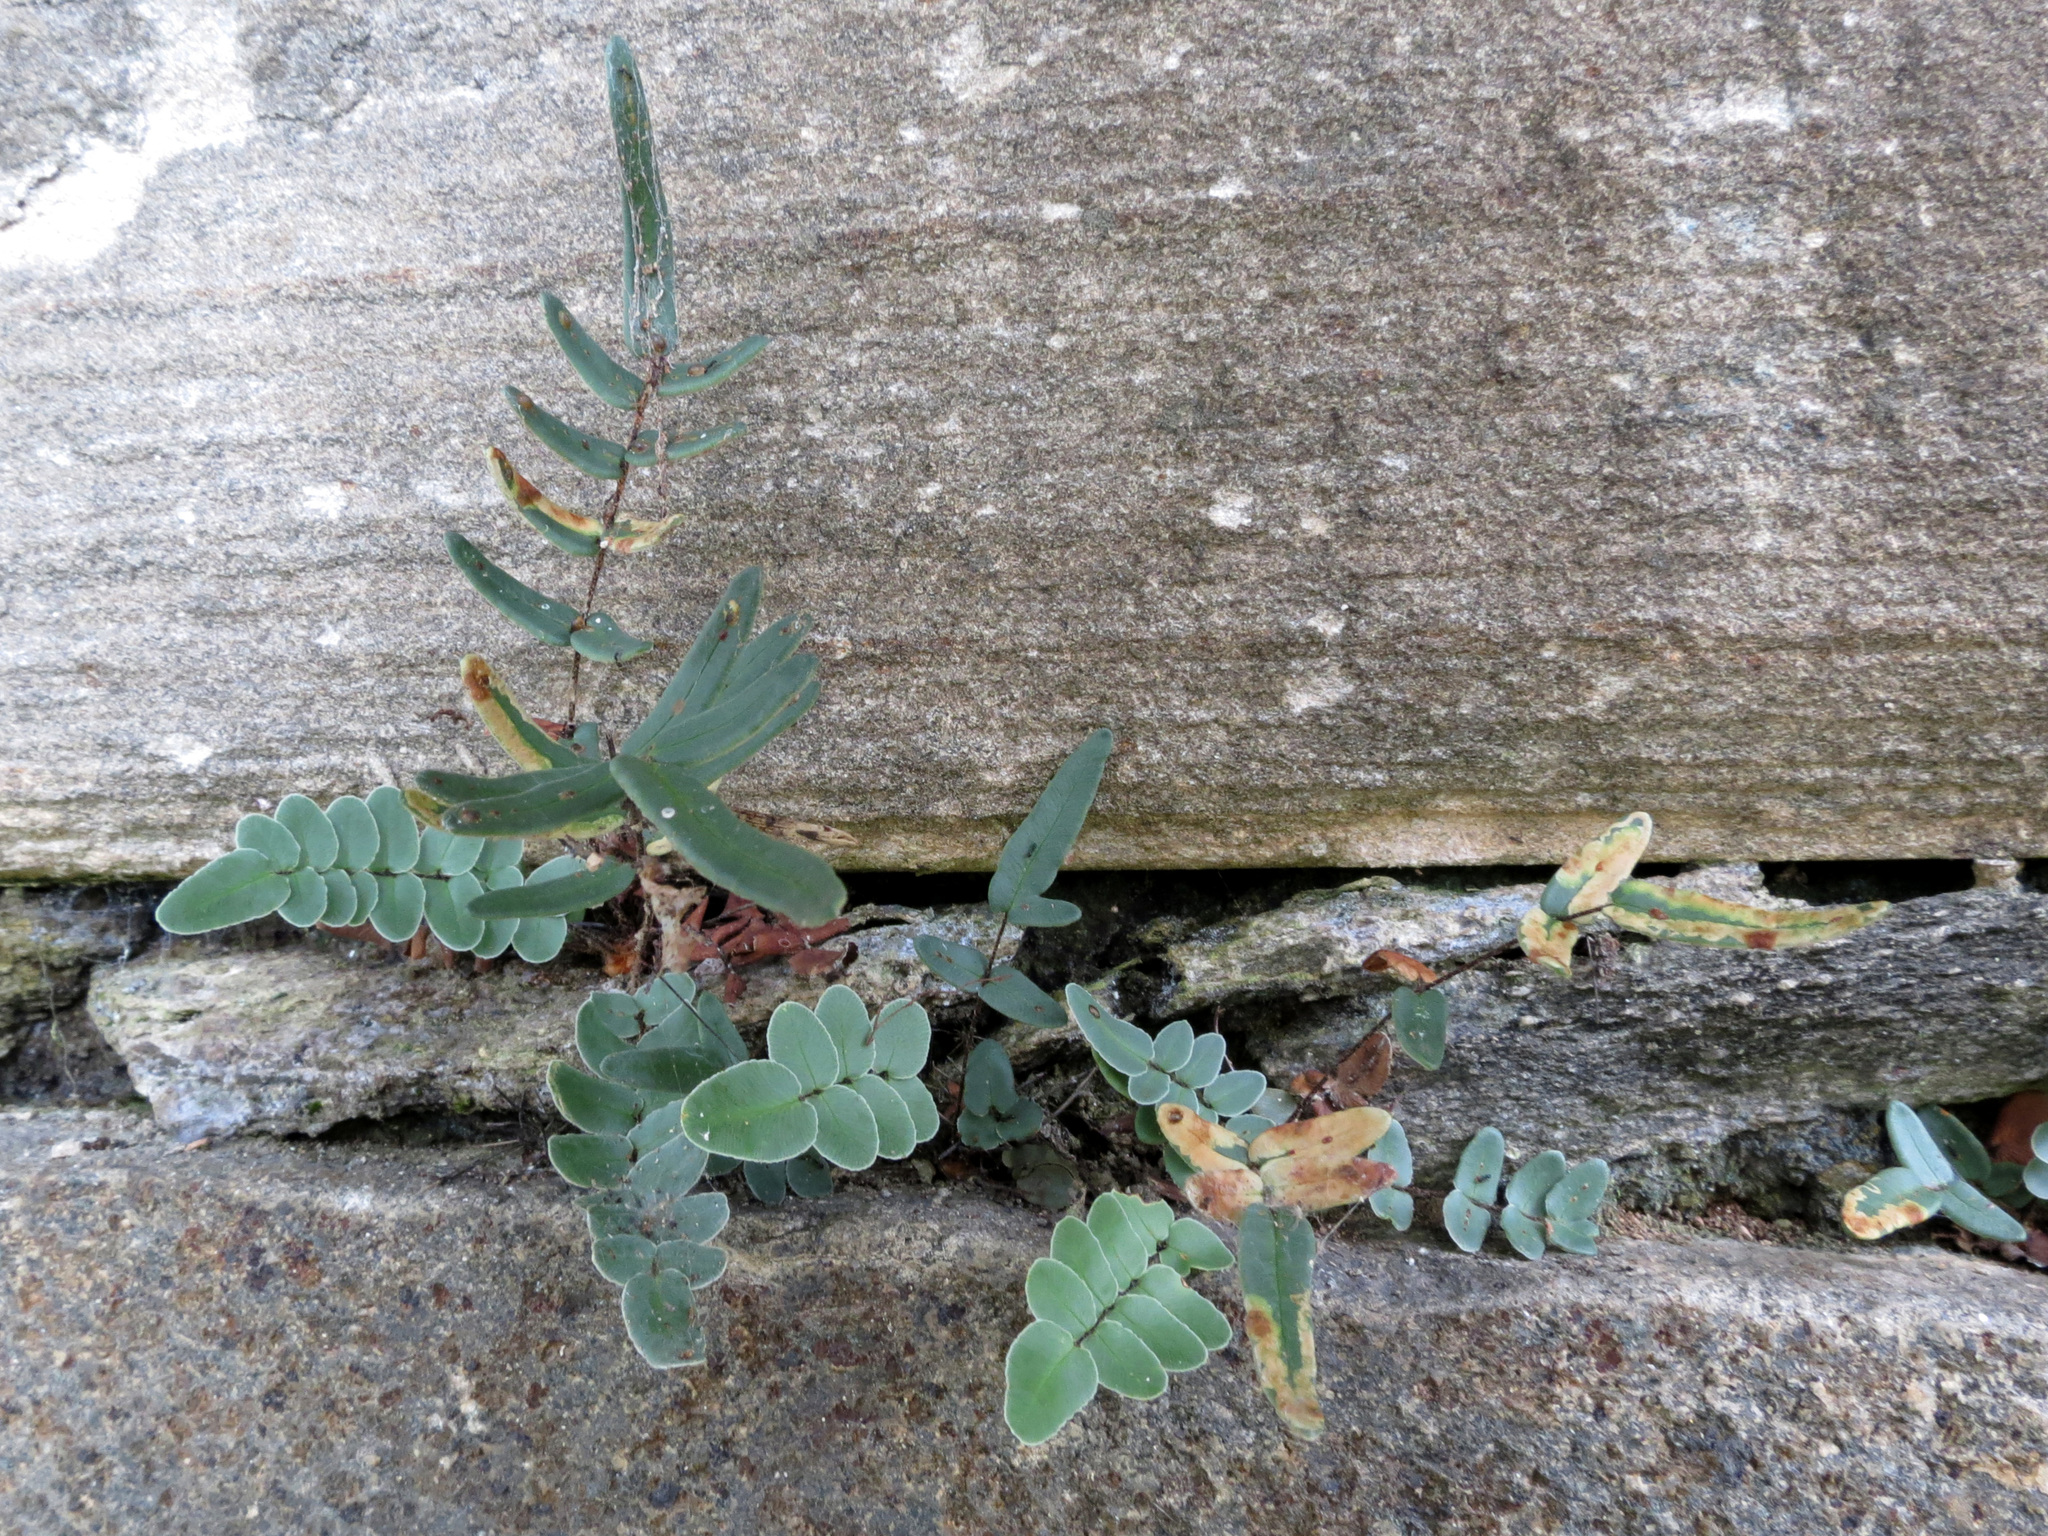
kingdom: Plantae
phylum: Tracheophyta
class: Polypodiopsida
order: Polypodiales
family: Pteridaceae
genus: Pellaea
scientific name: Pellaea atropurpurea
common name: Hairy cliffbrake
